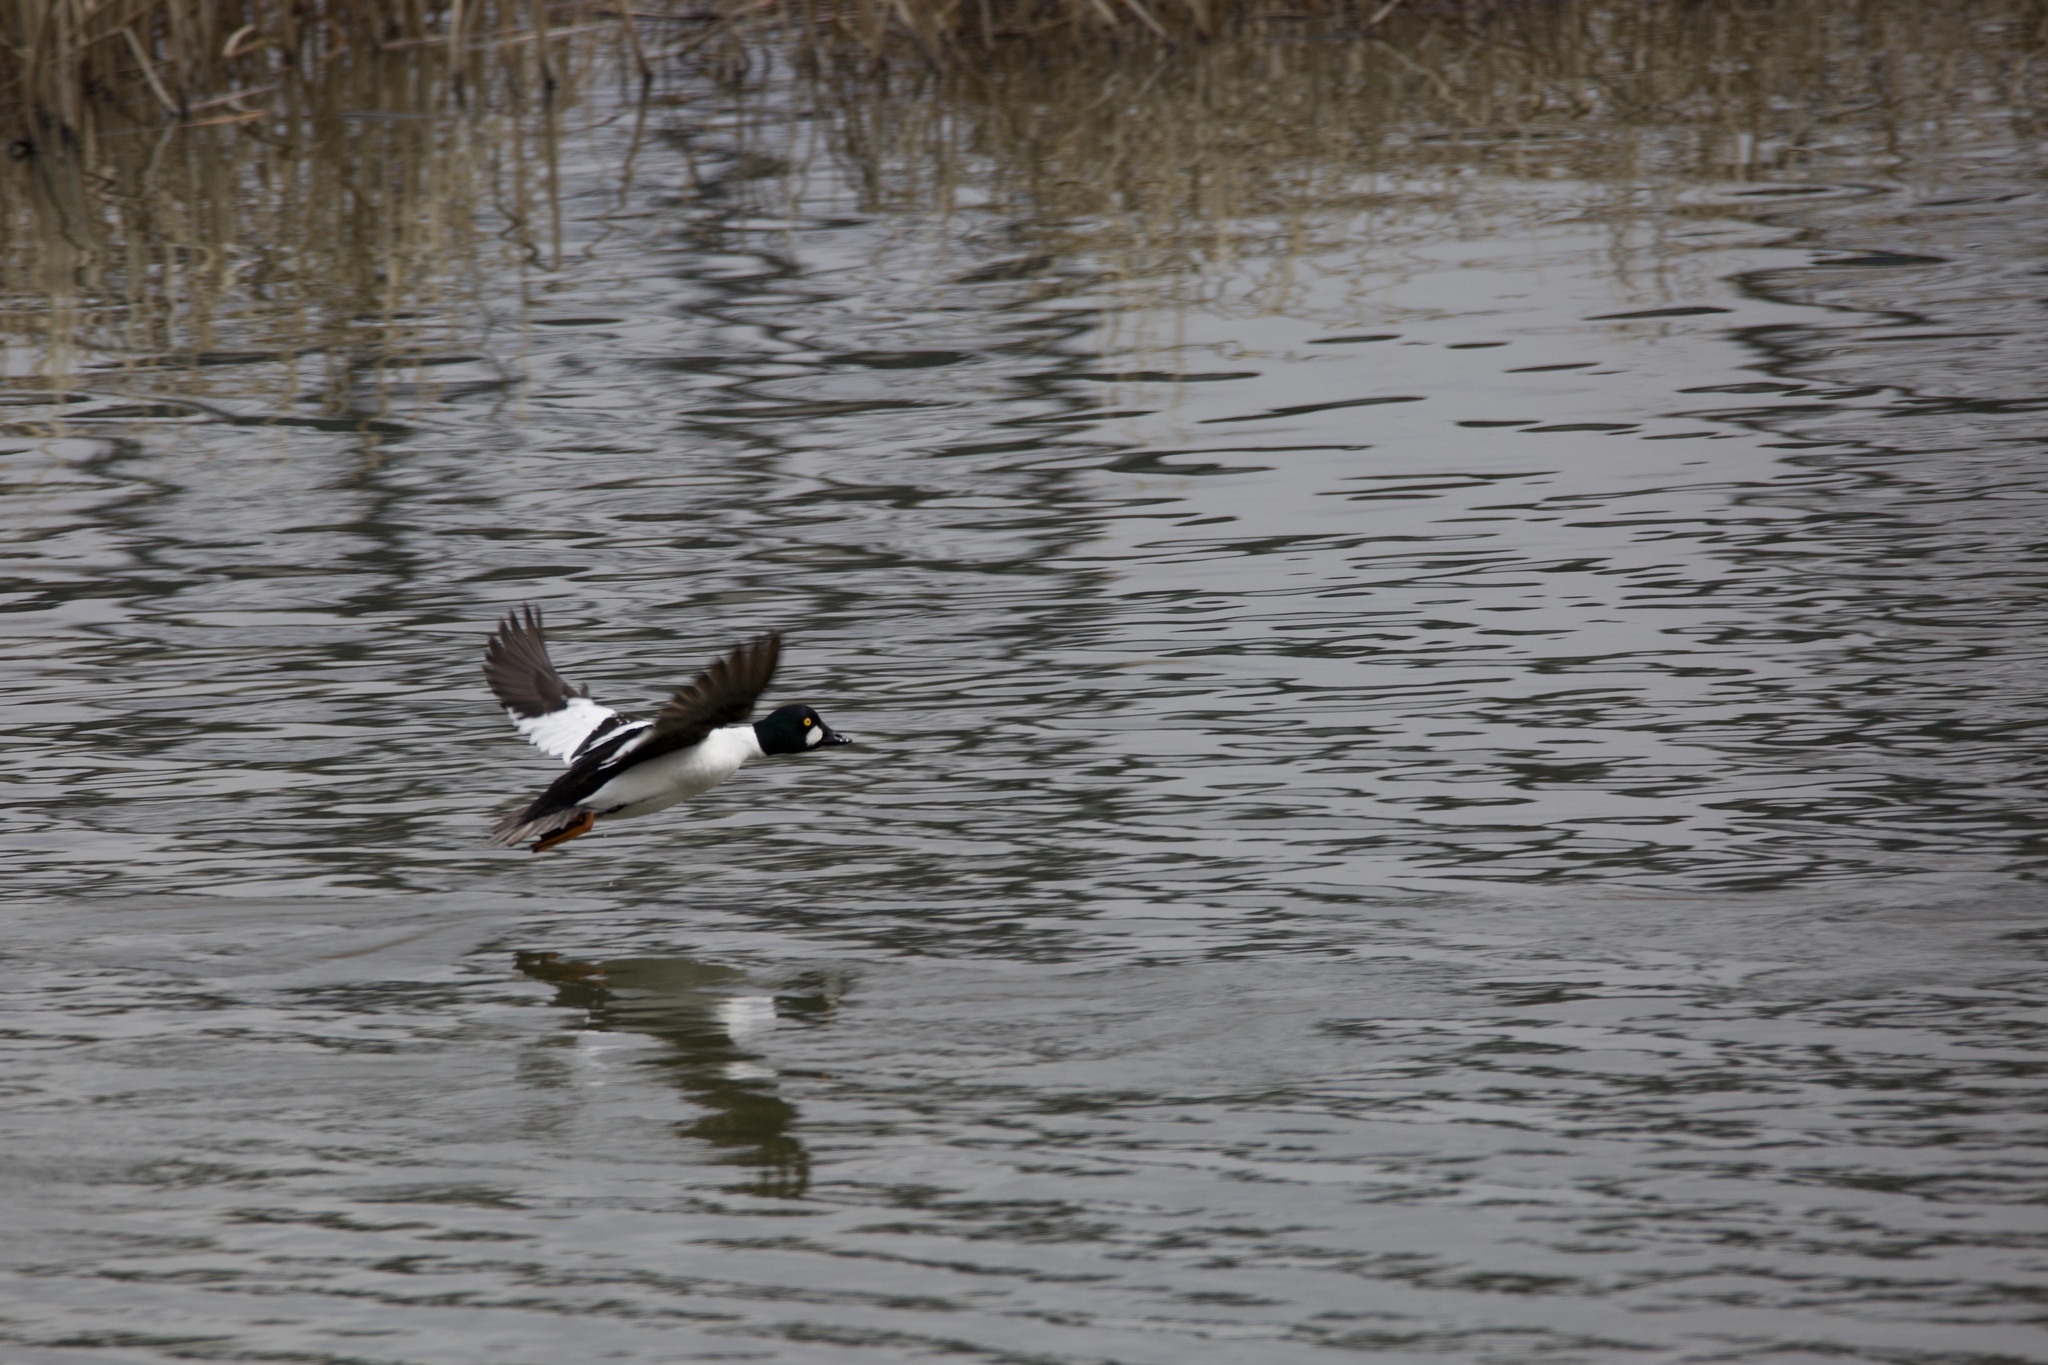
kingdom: Animalia
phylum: Chordata
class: Aves
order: Anseriformes
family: Anatidae
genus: Bucephala
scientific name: Bucephala clangula
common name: Common goldeneye
